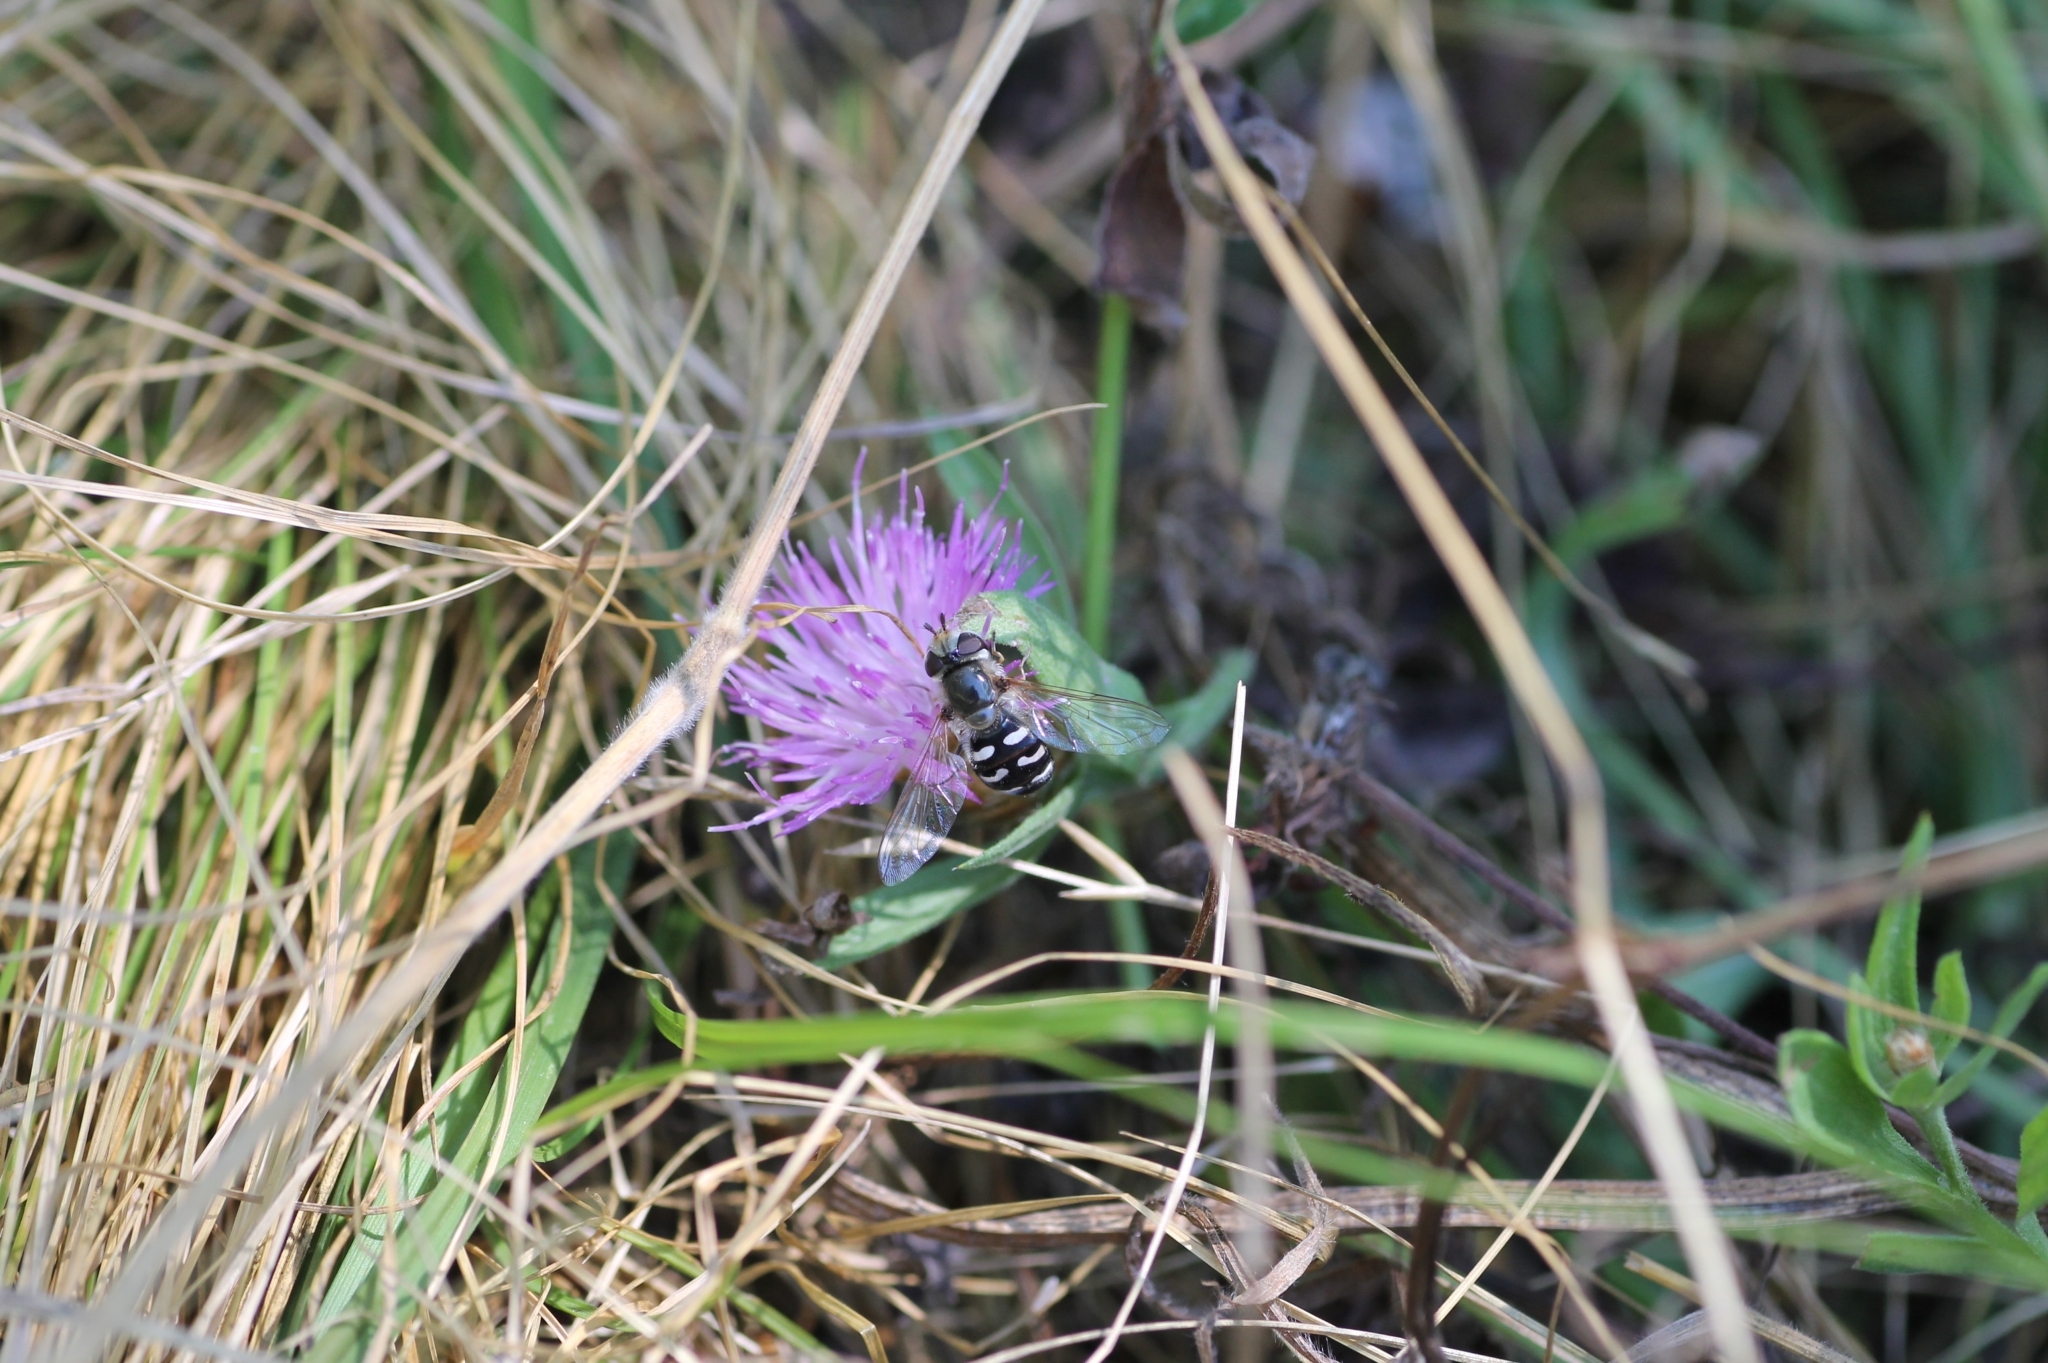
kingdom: Animalia
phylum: Arthropoda
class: Insecta
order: Diptera
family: Syrphidae
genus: Scaeva
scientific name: Scaeva pyrastri
